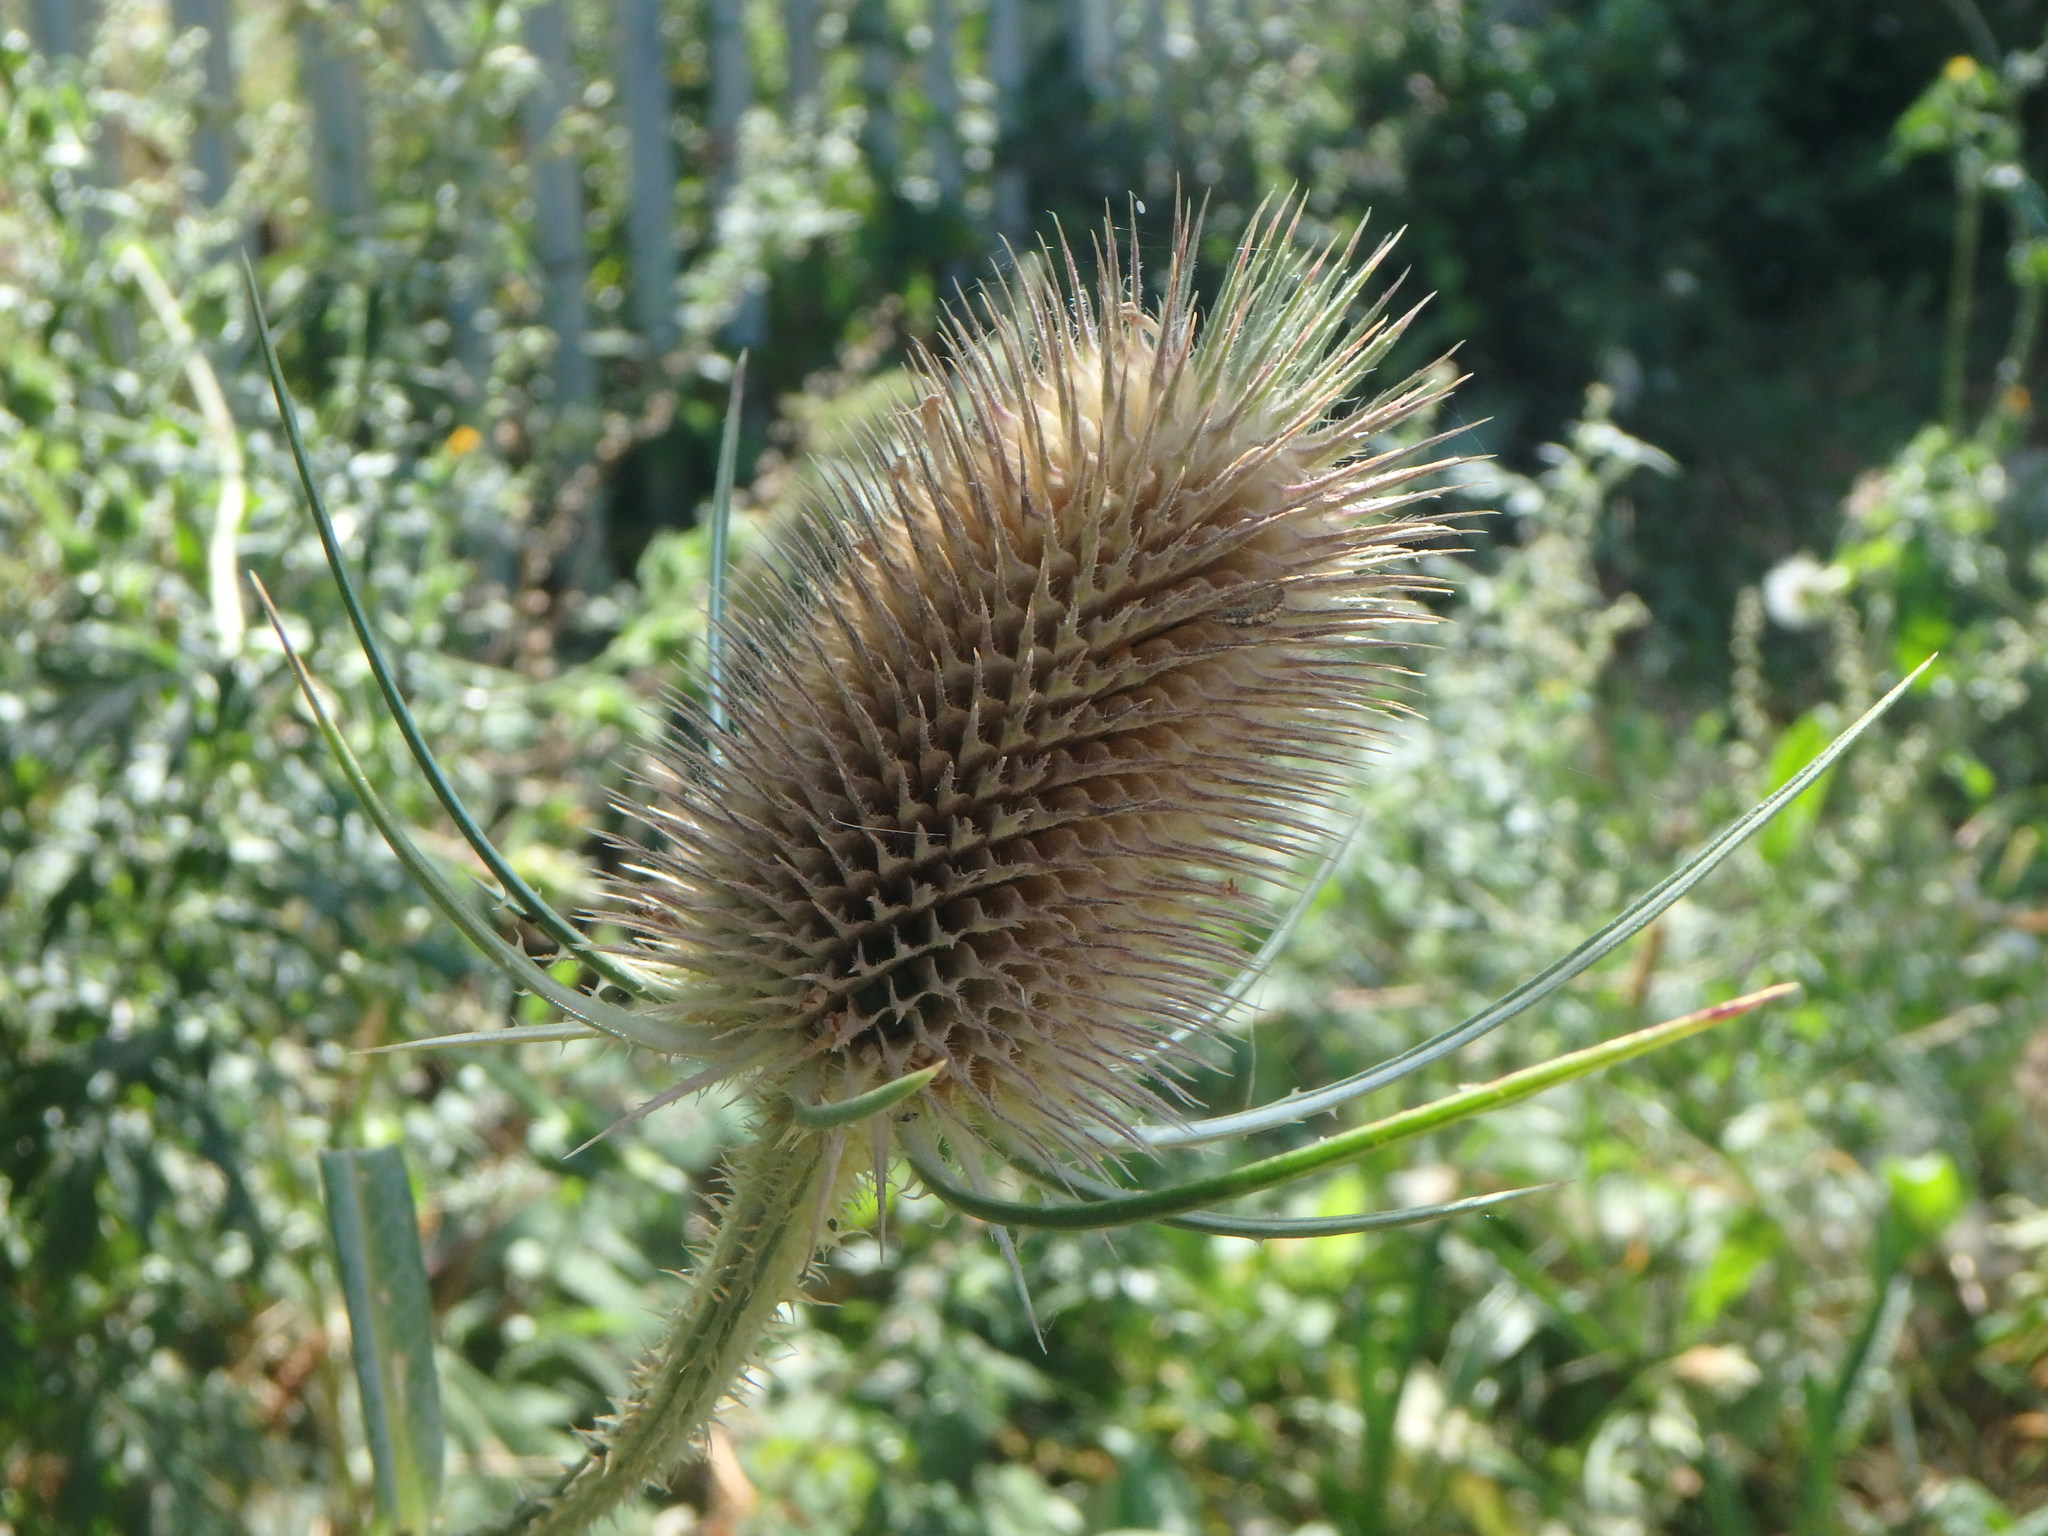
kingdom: Plantae
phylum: Tracheophyta
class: Magnoliopsida
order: Dipsacales
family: Caprifoliaceae
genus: Dipsacus
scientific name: Dipsacus fullonum
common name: Teasel
